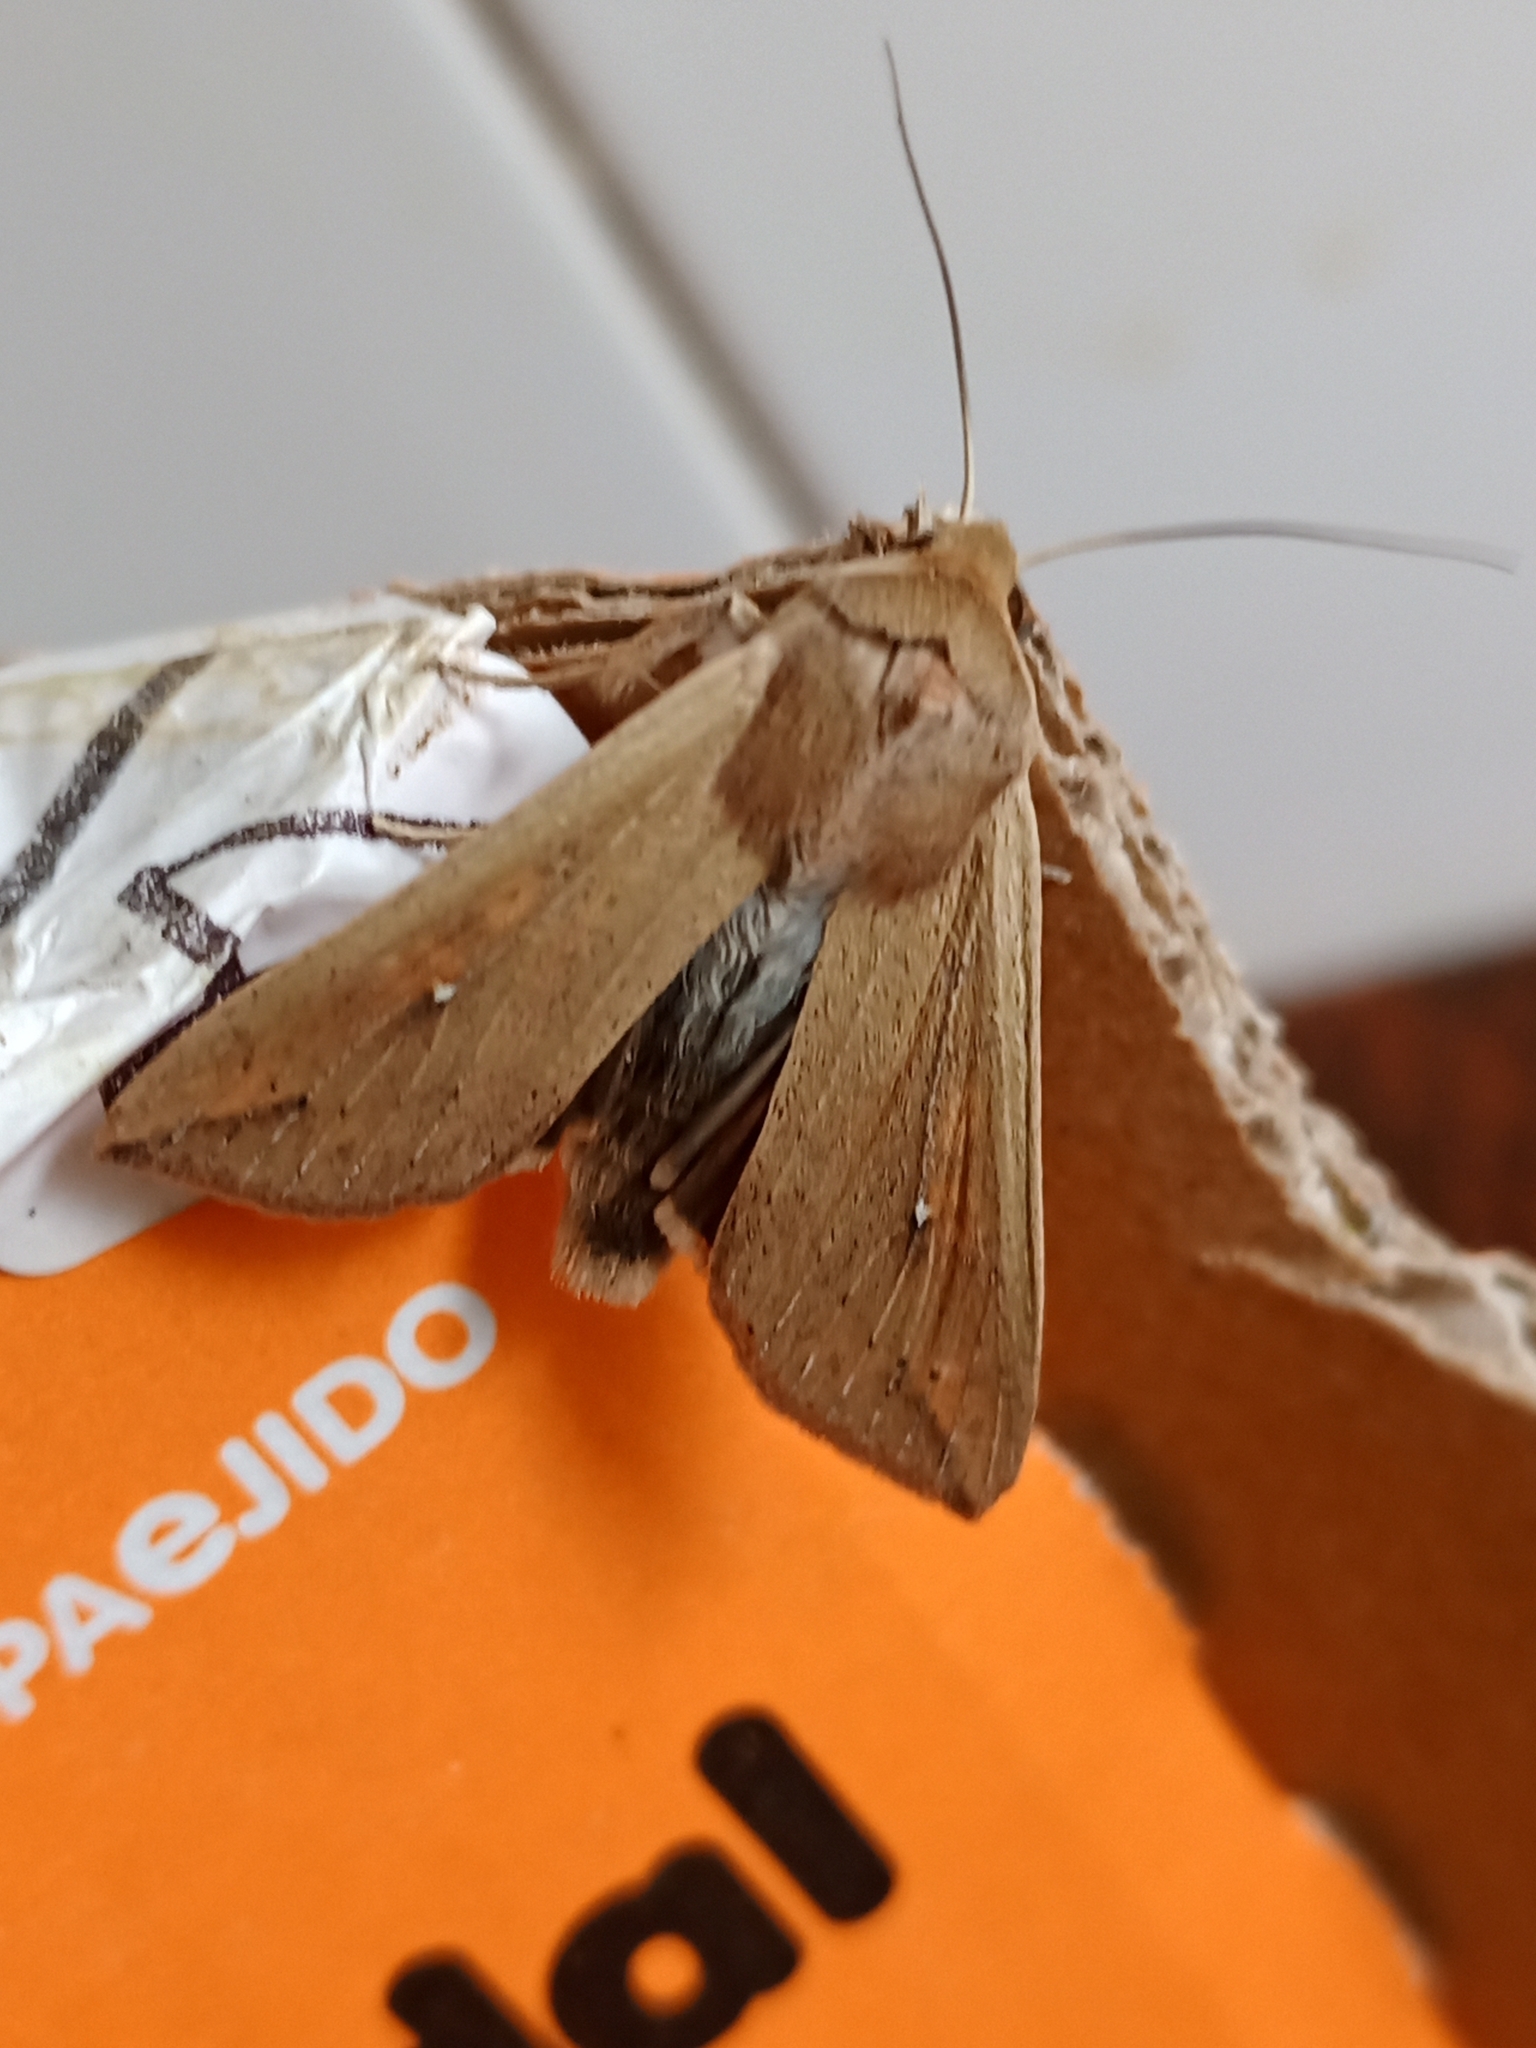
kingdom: Animalia
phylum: Arthropoda
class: Insecta
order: Lepidoptera
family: Noctuidae
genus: Mythimna
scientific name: Mythimna unipuncta
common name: White-speck
